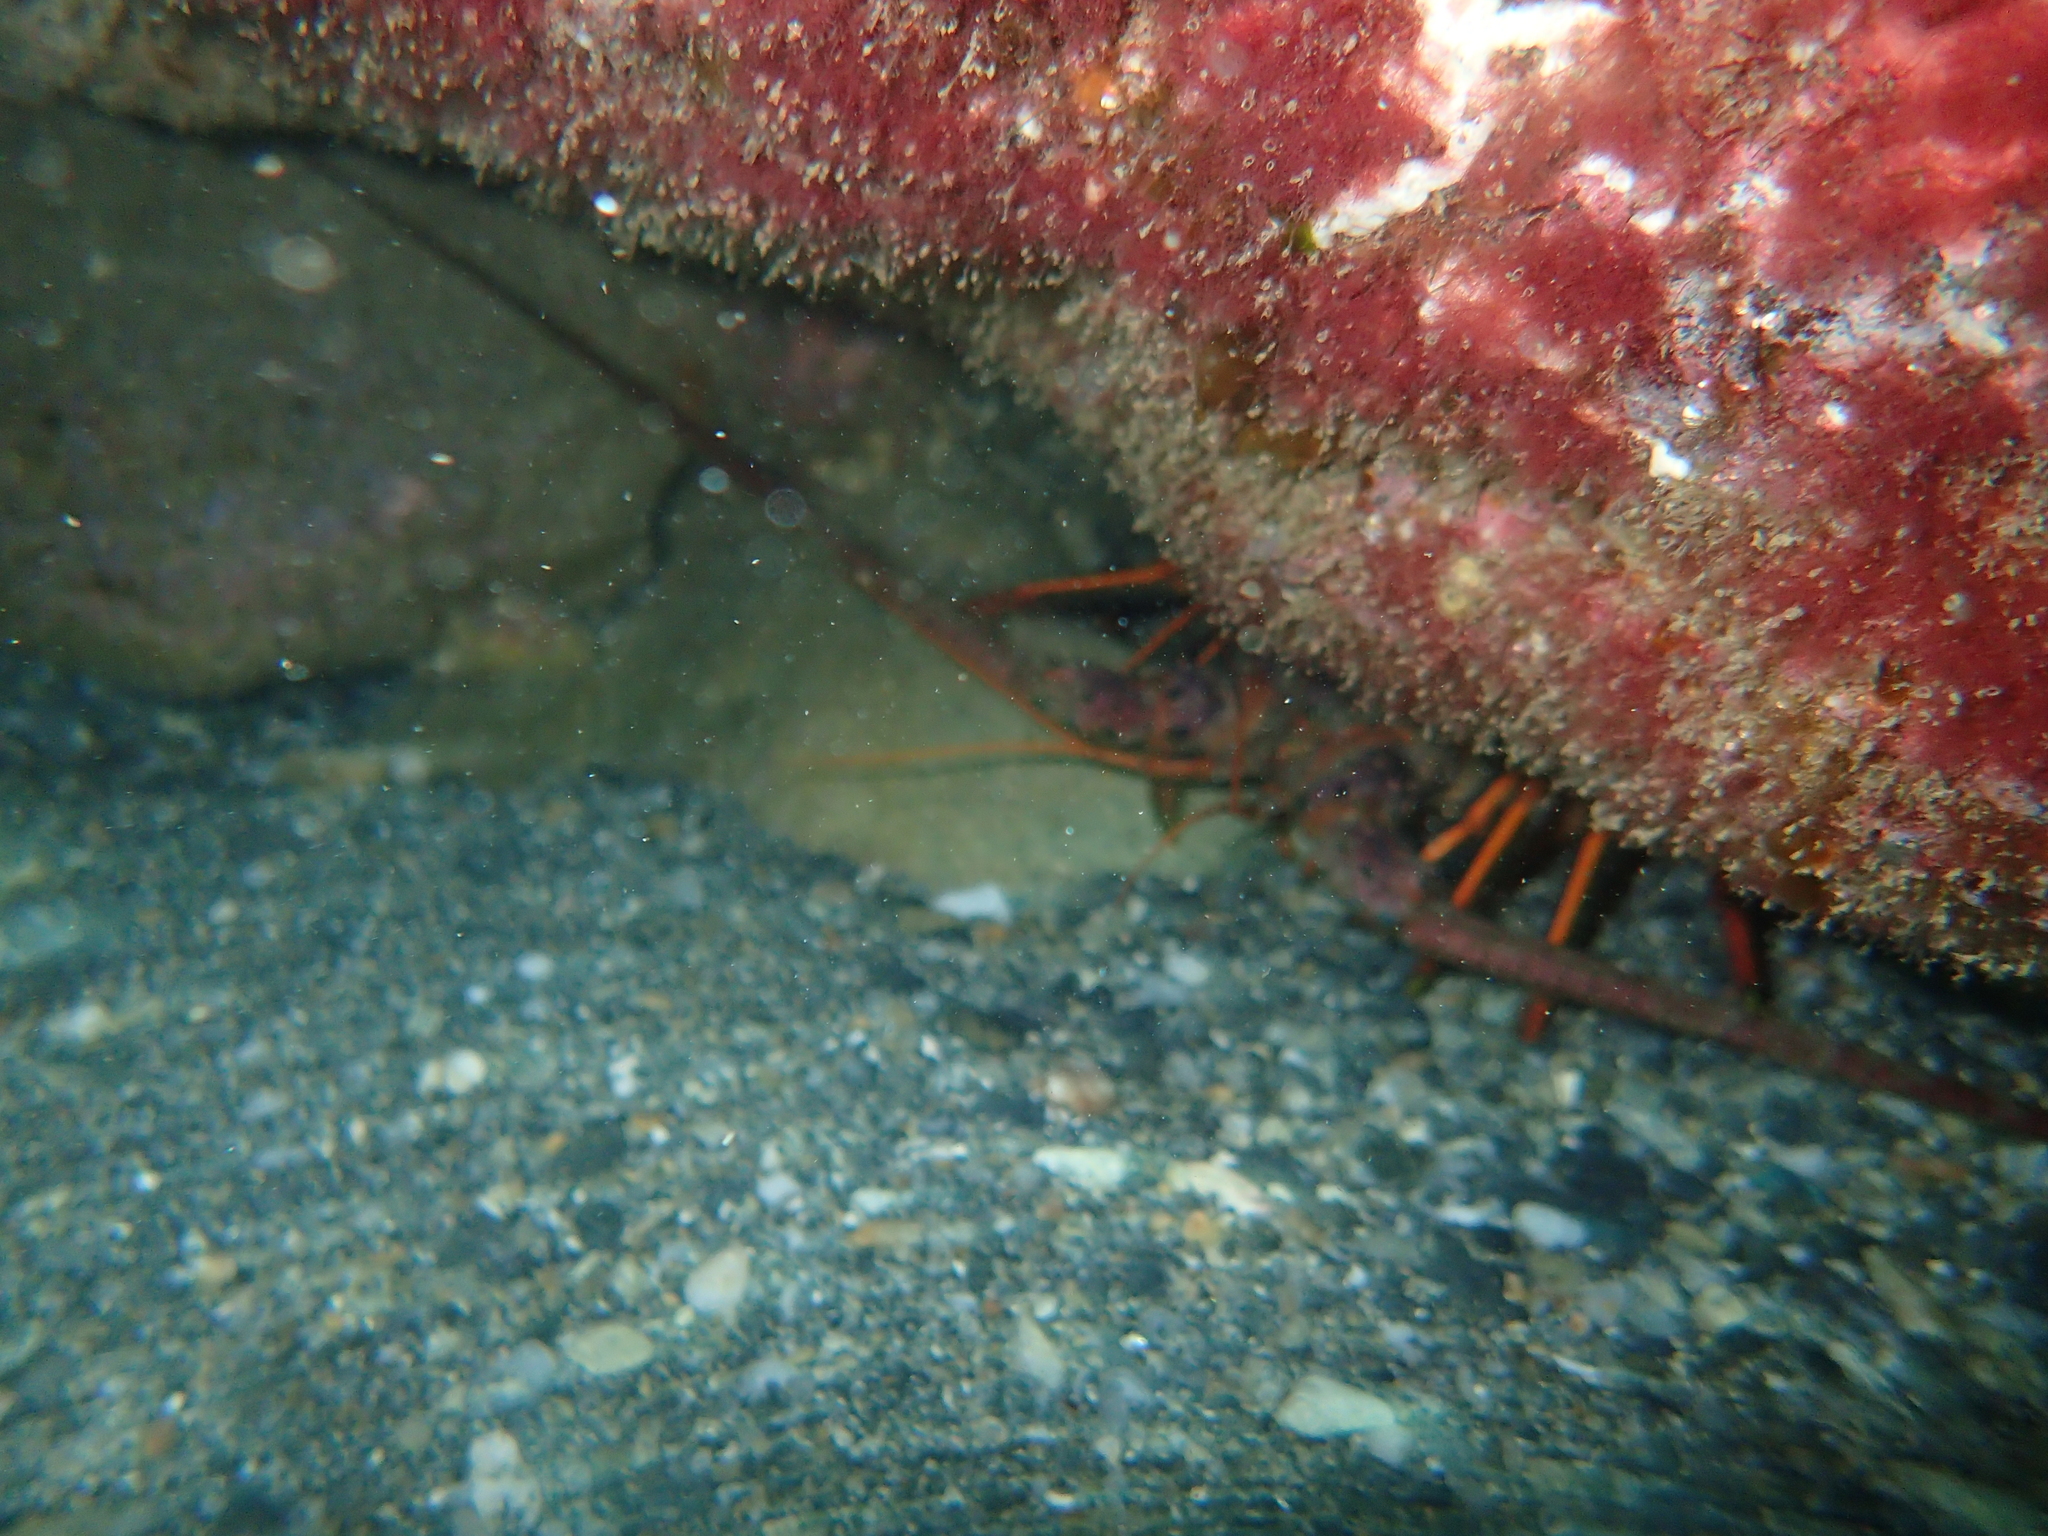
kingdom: Animalia
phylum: Arthropoda
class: Malacostraca
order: Decapoda
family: Palinuridae
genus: Panulirus
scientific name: Panulirus interruptus
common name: California spiny lobster
